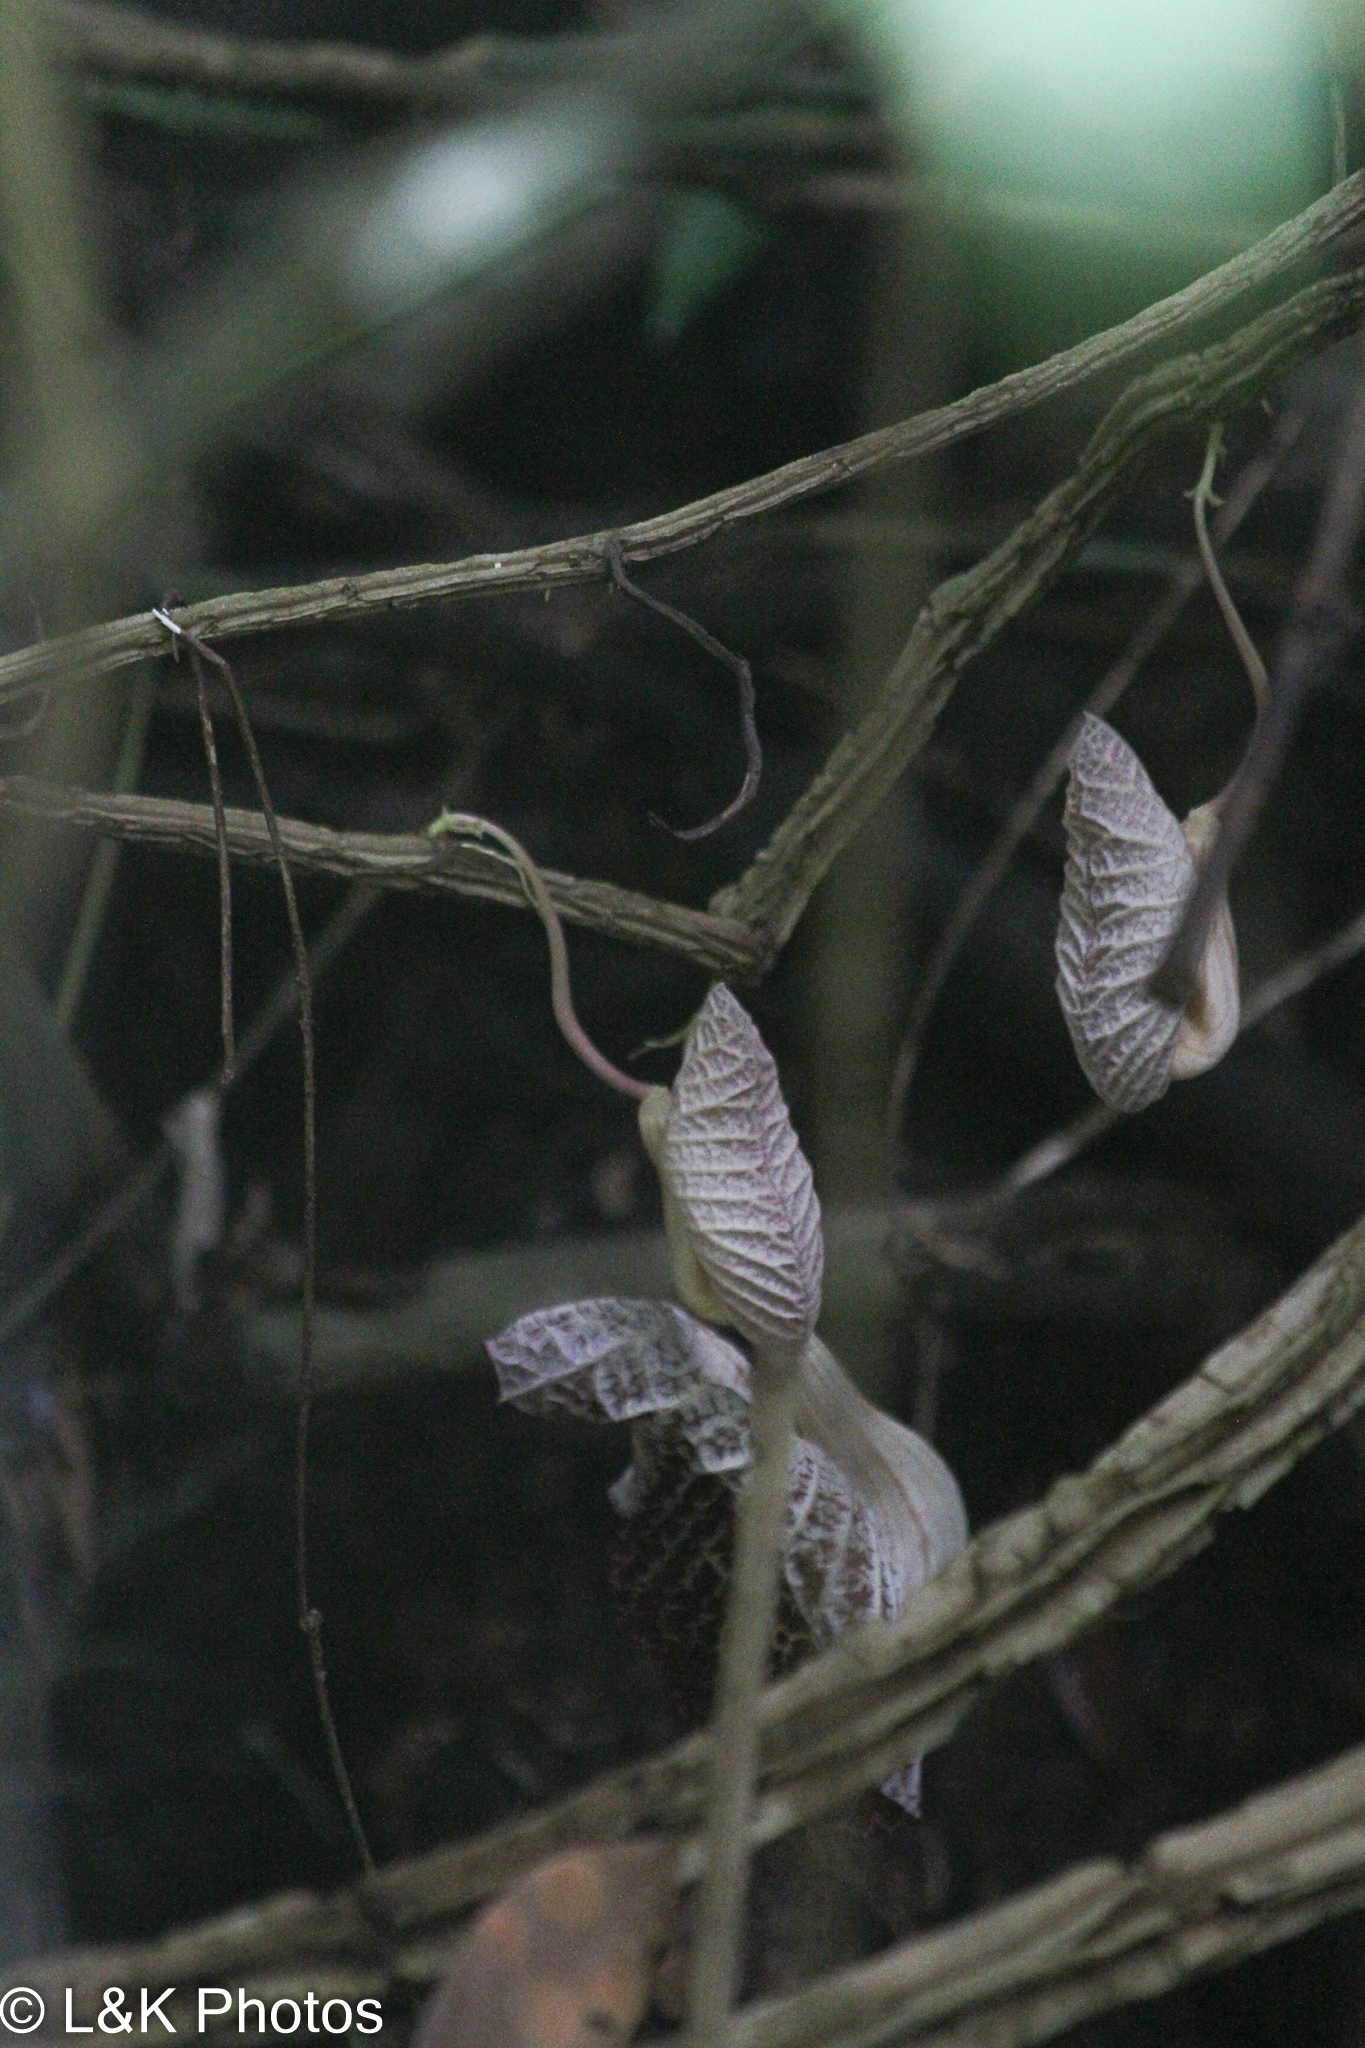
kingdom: Plantae
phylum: Tracheophyta
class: Magnoliopsida
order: Piperales
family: Aristolochiaceae
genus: Aristolochia
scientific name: Aristolochia cordiflora
